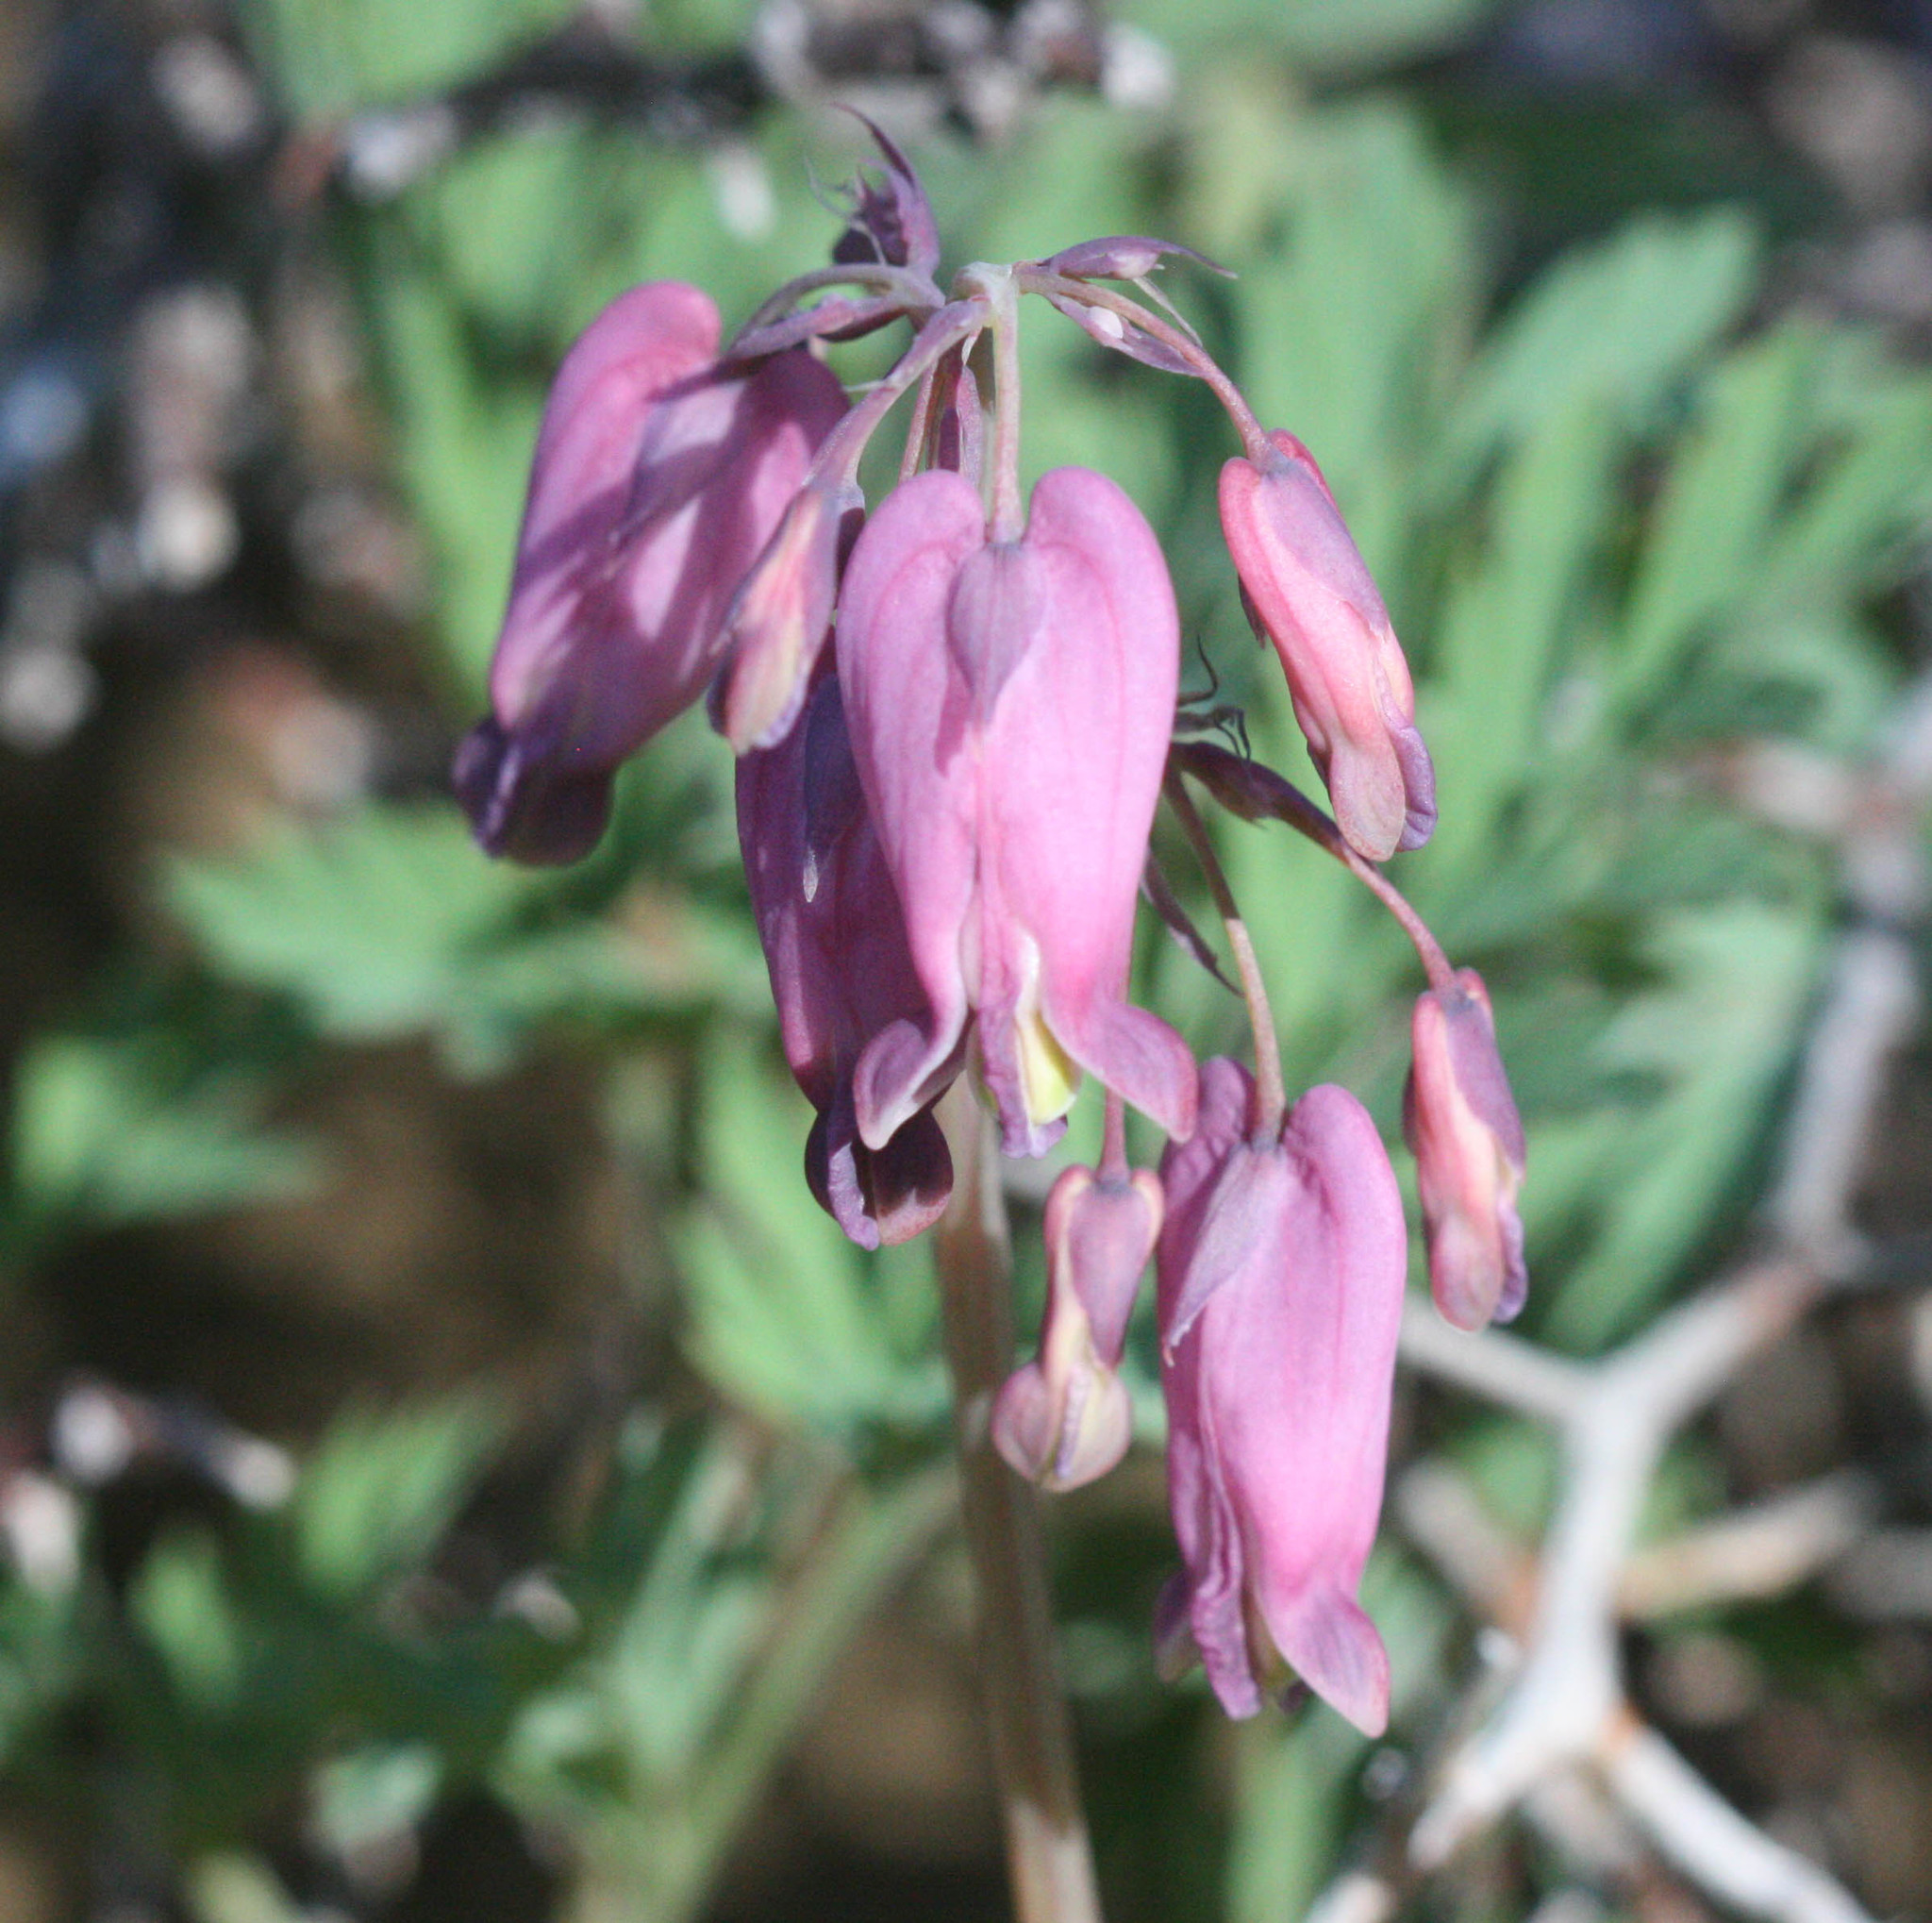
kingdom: Plantae
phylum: Tracheophyta
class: Magnoliopsida
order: Ranunculales
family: Papaveraceae
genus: Dicentra
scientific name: Dicentra formosa
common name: Bleeding-heart
